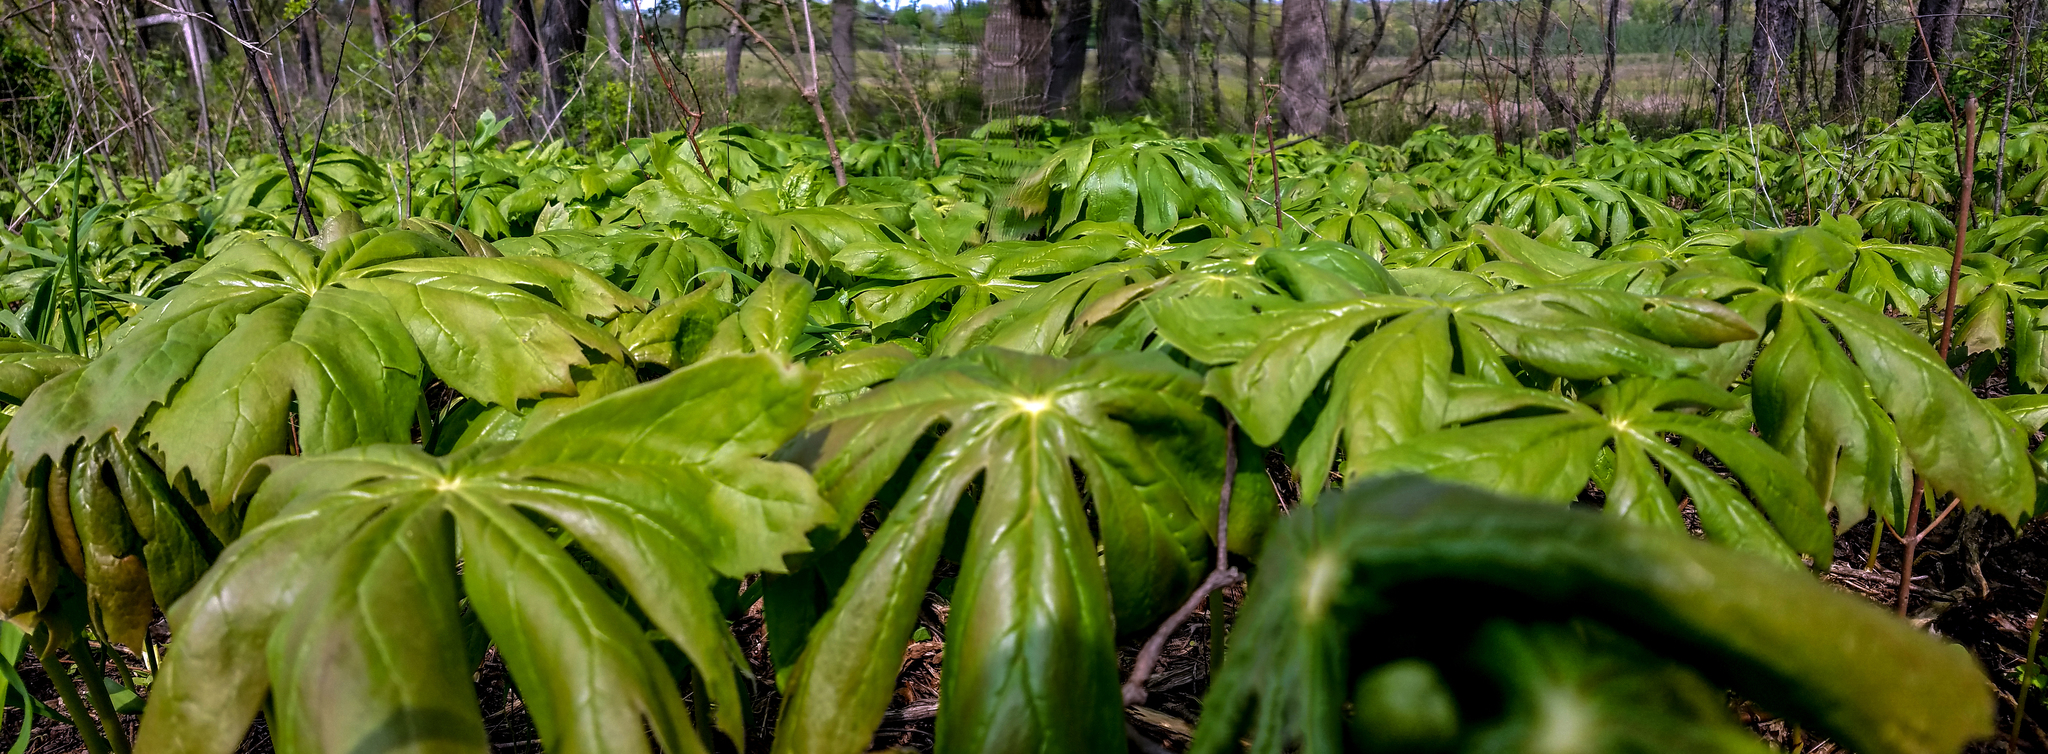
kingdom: Plantae
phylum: Tracheophyta
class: Magnoliopsida
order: Ranunculales
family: Berberidaceae
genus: Podophyllum
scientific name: Podophyllum peltatum
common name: Wild mandrake
